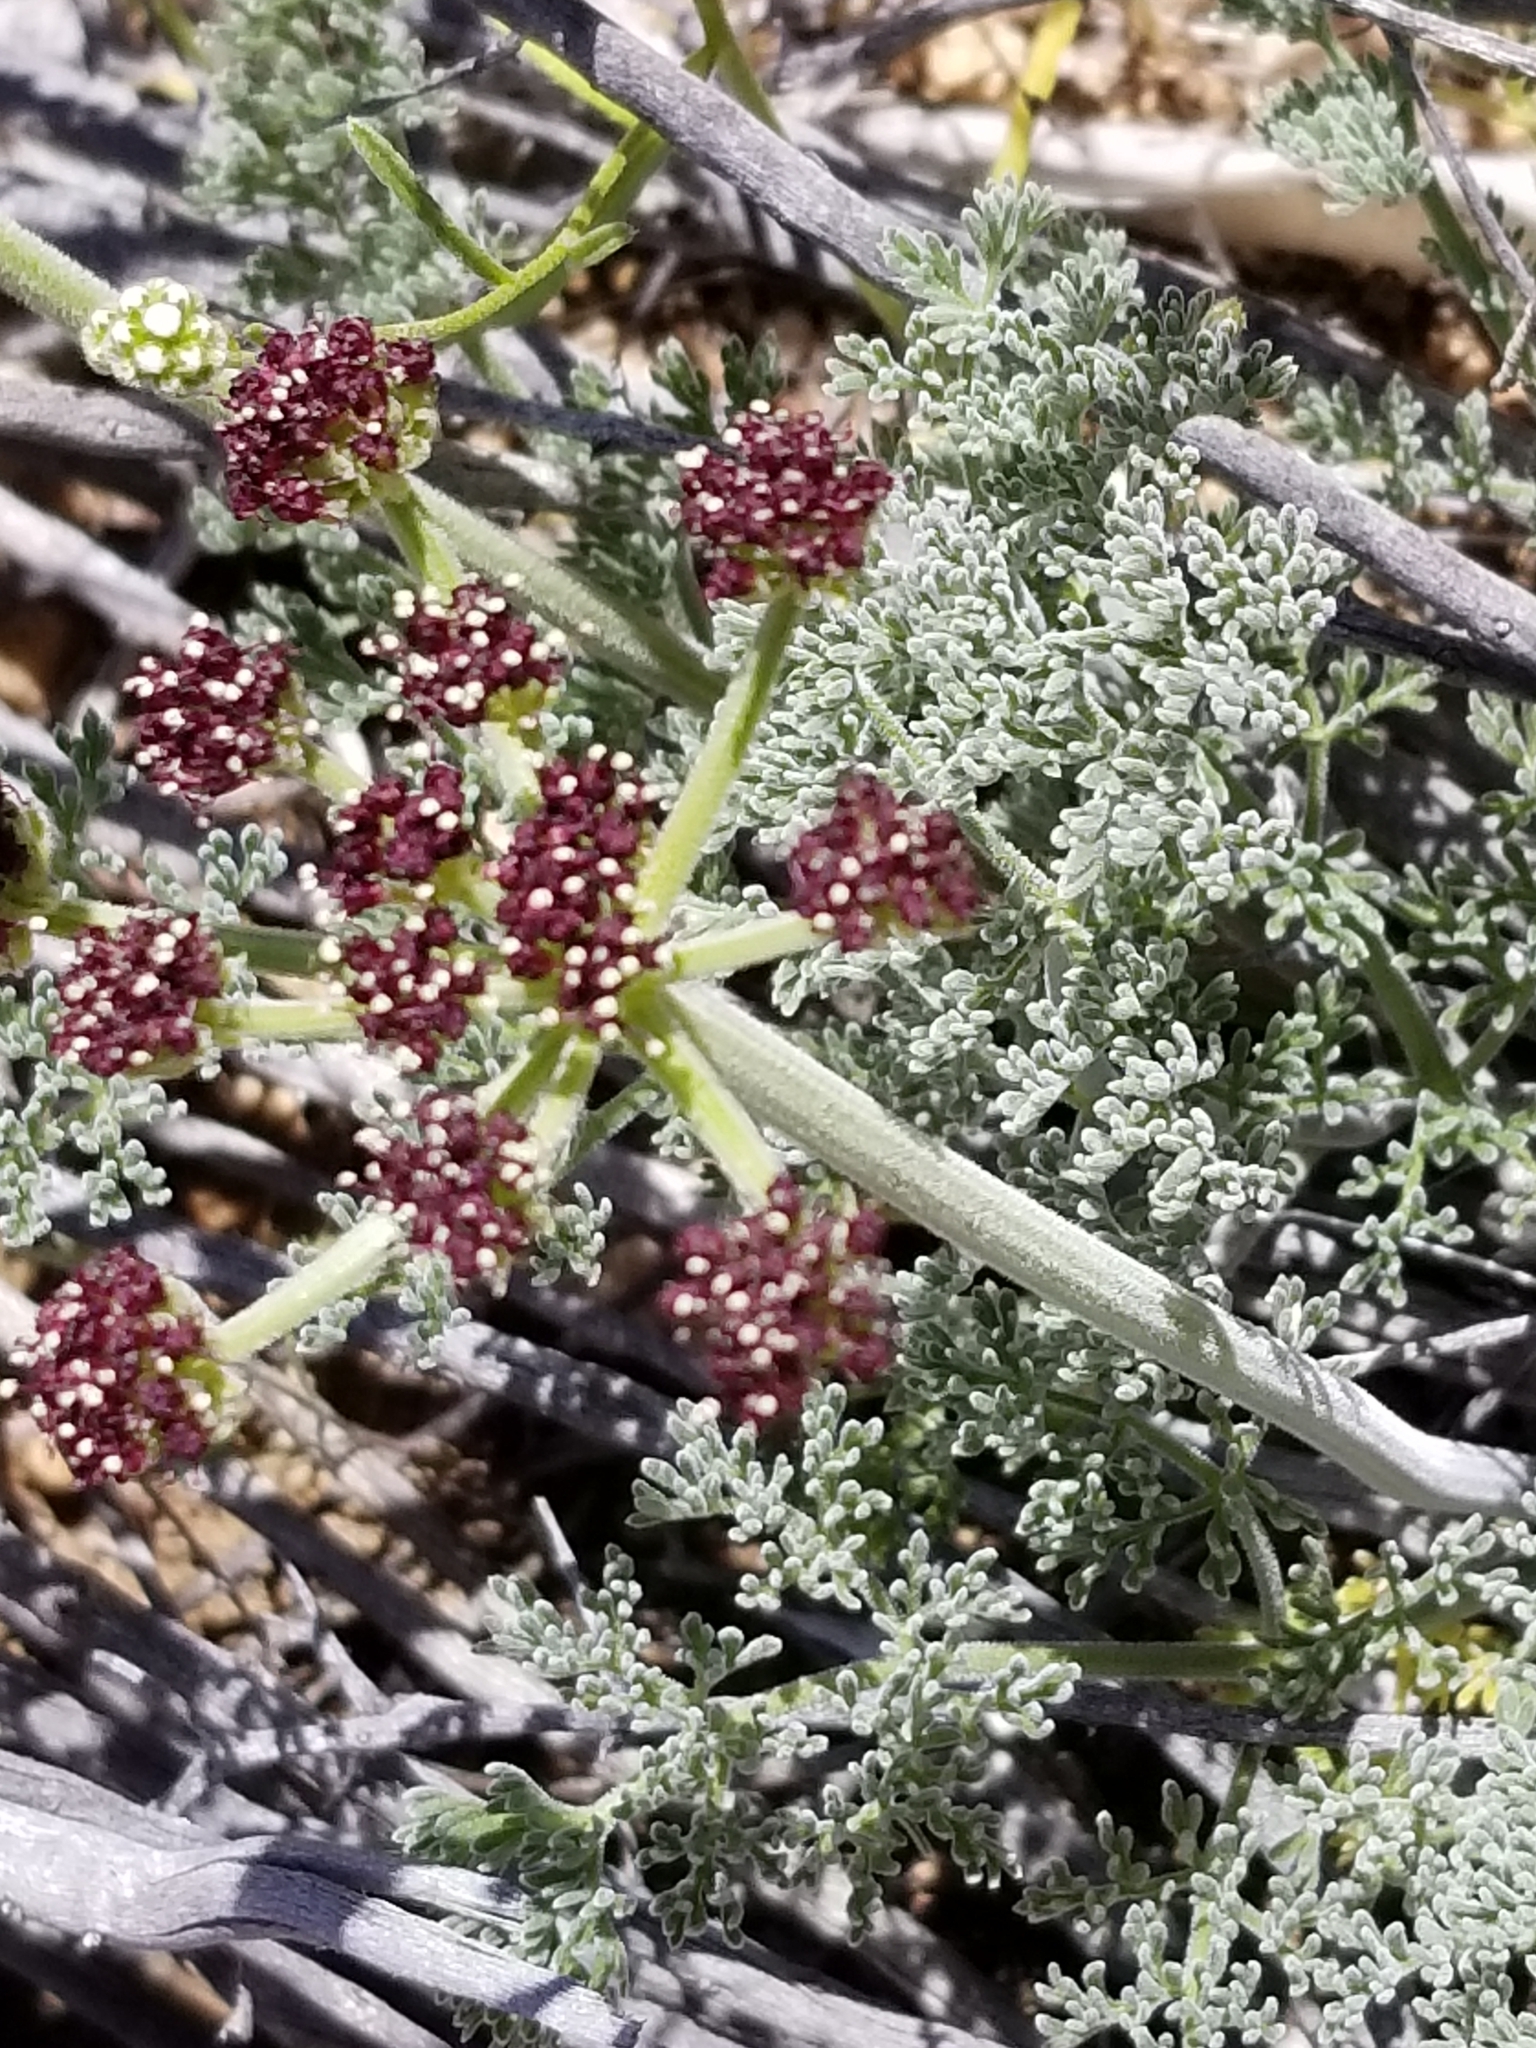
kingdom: Plantae
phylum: Tracheophyta
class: Magnoliopsida
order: Apiales
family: Apiaceae
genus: Lomatium
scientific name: Lomatium mohavense
